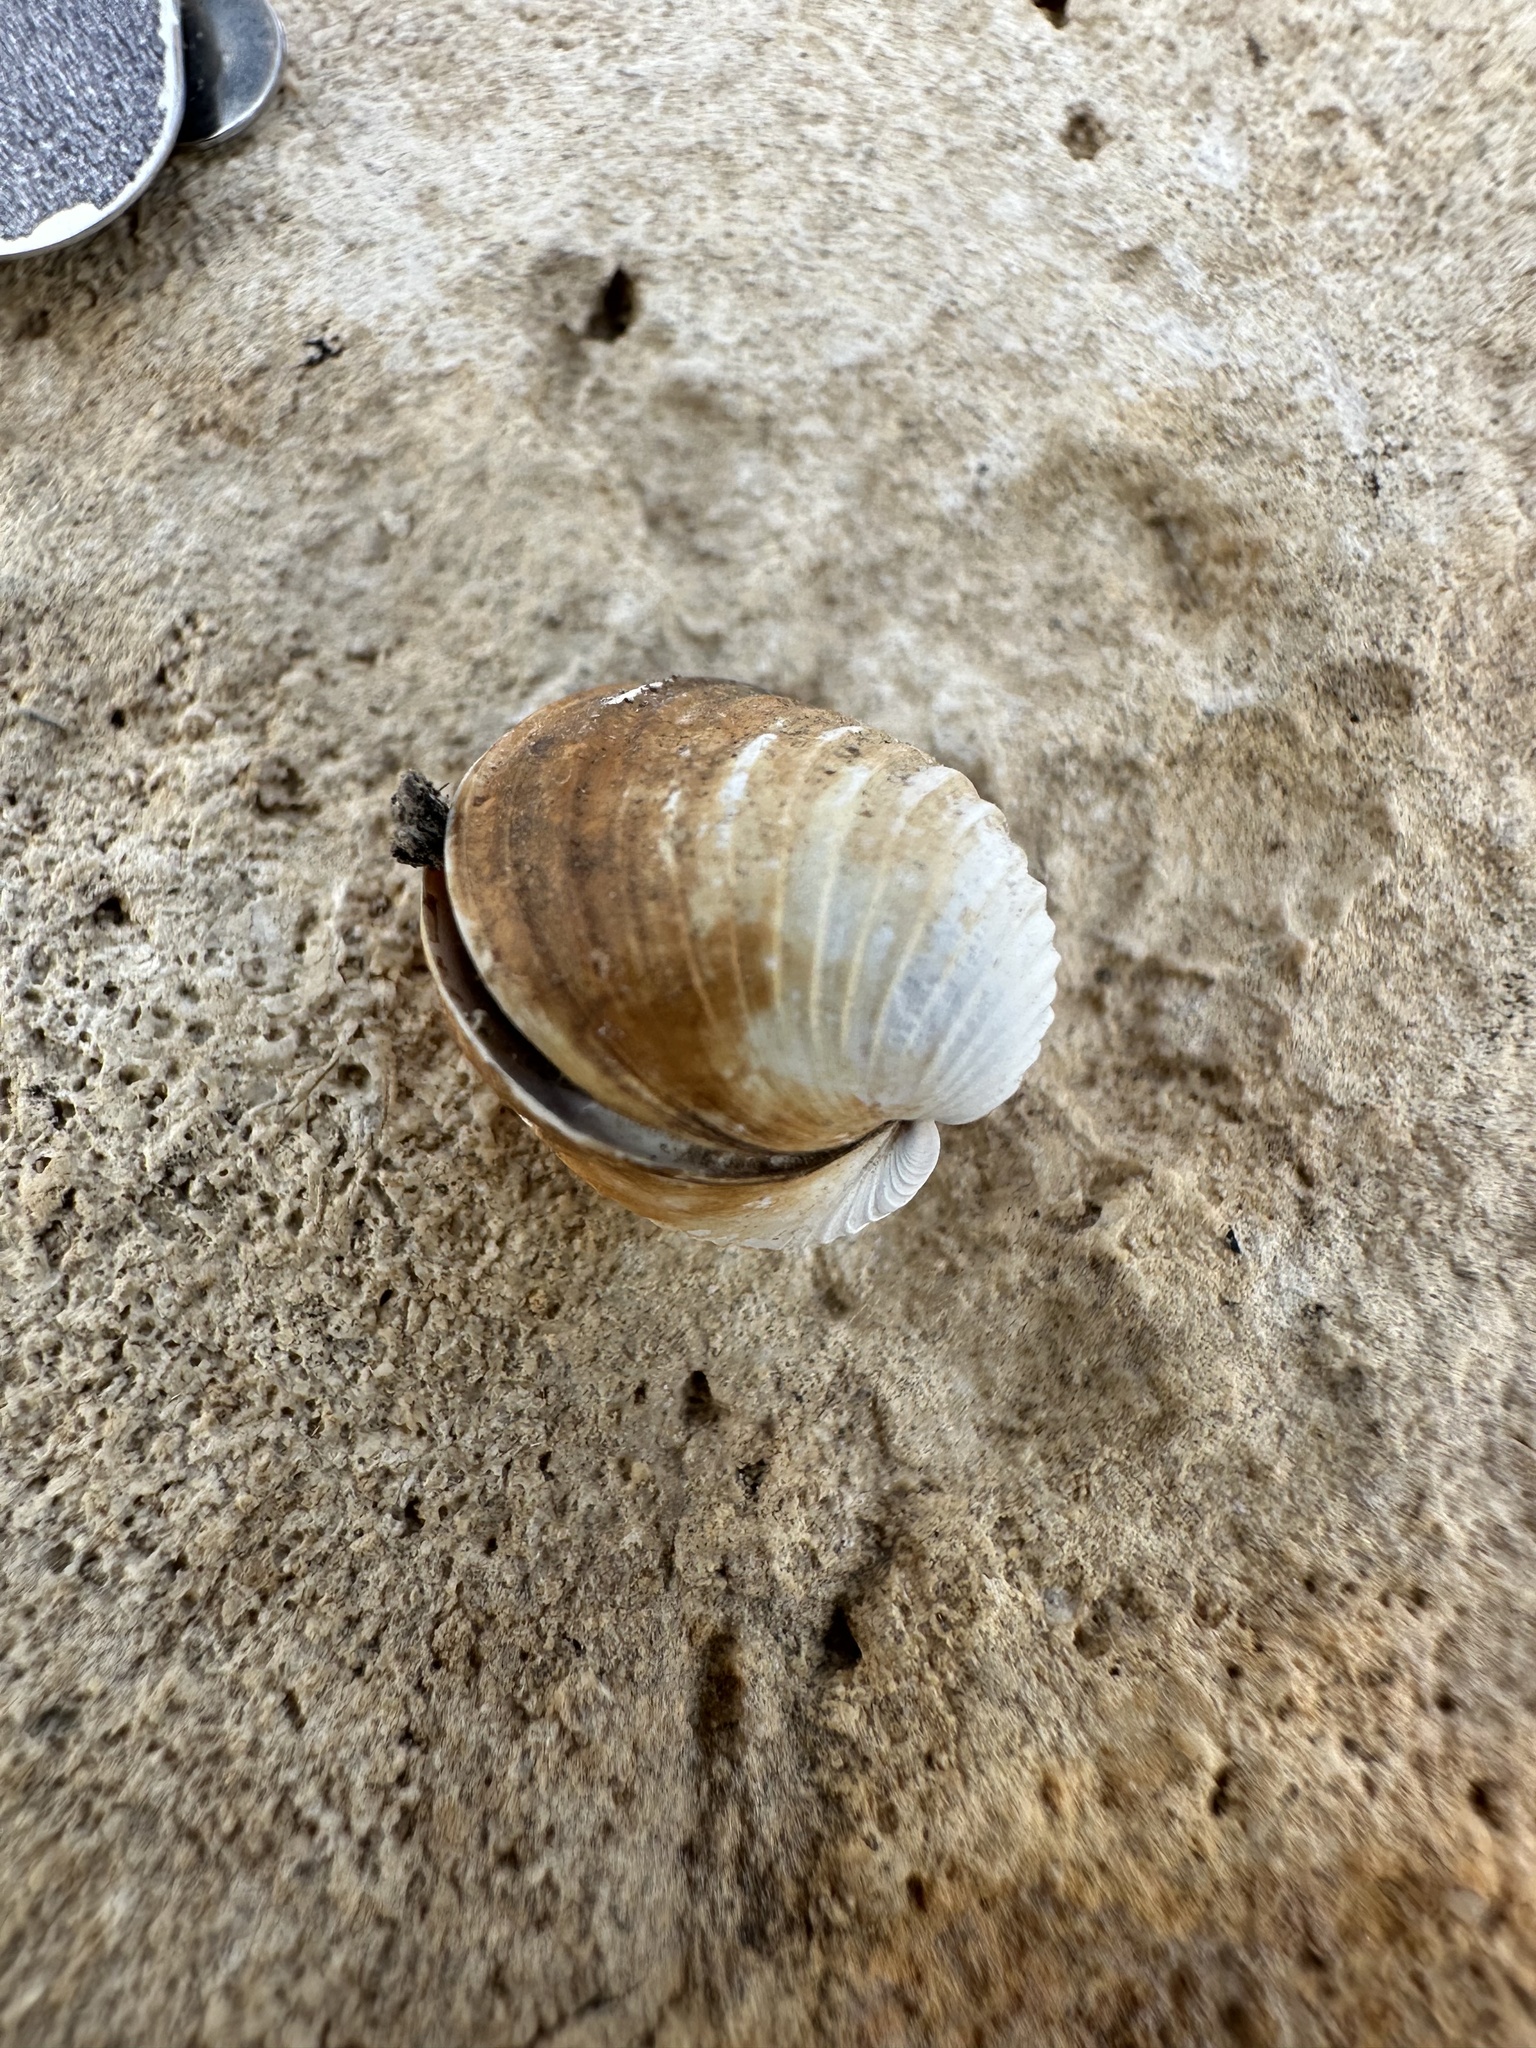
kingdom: Animalia
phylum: Mollusca
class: Bivalvia
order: Venerida
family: Cyrenidae
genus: Corbicula
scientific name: Corbicula fluminea
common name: Asian clam
